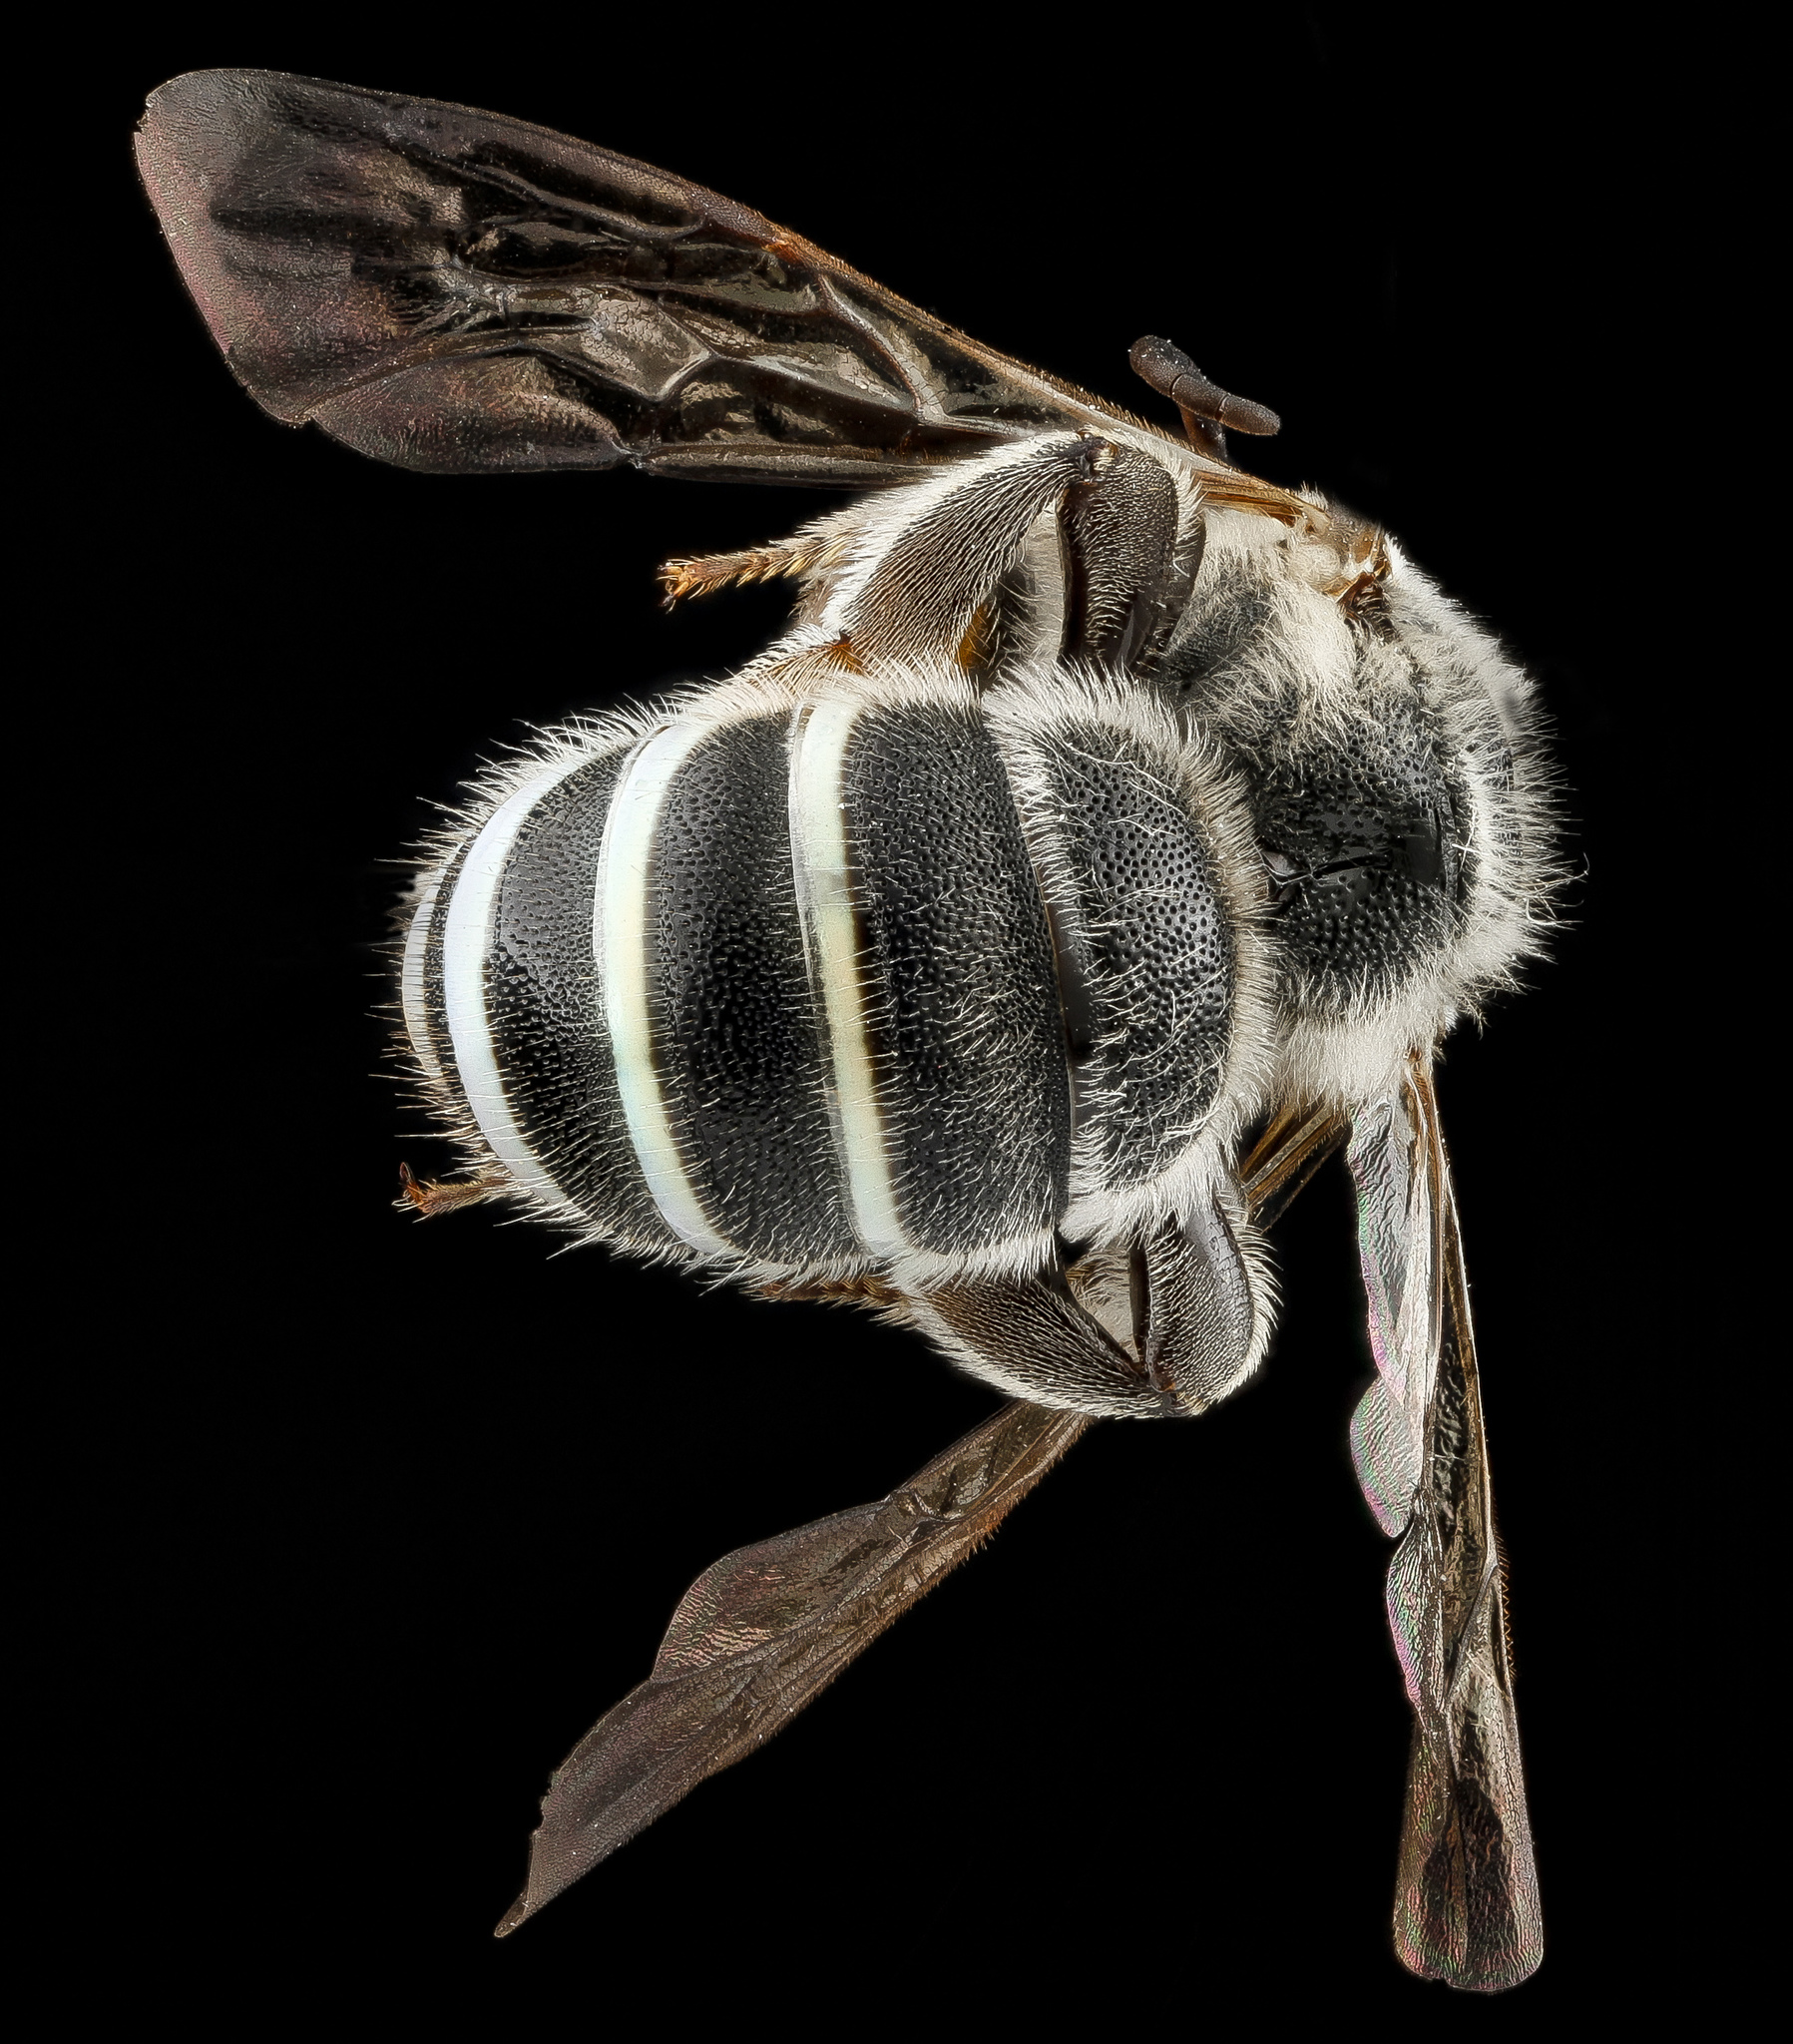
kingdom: Animalia
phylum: Arthropoda
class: Insecta
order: Hymenoptera
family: Halictidae
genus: Nomia
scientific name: Nomia universitatis
